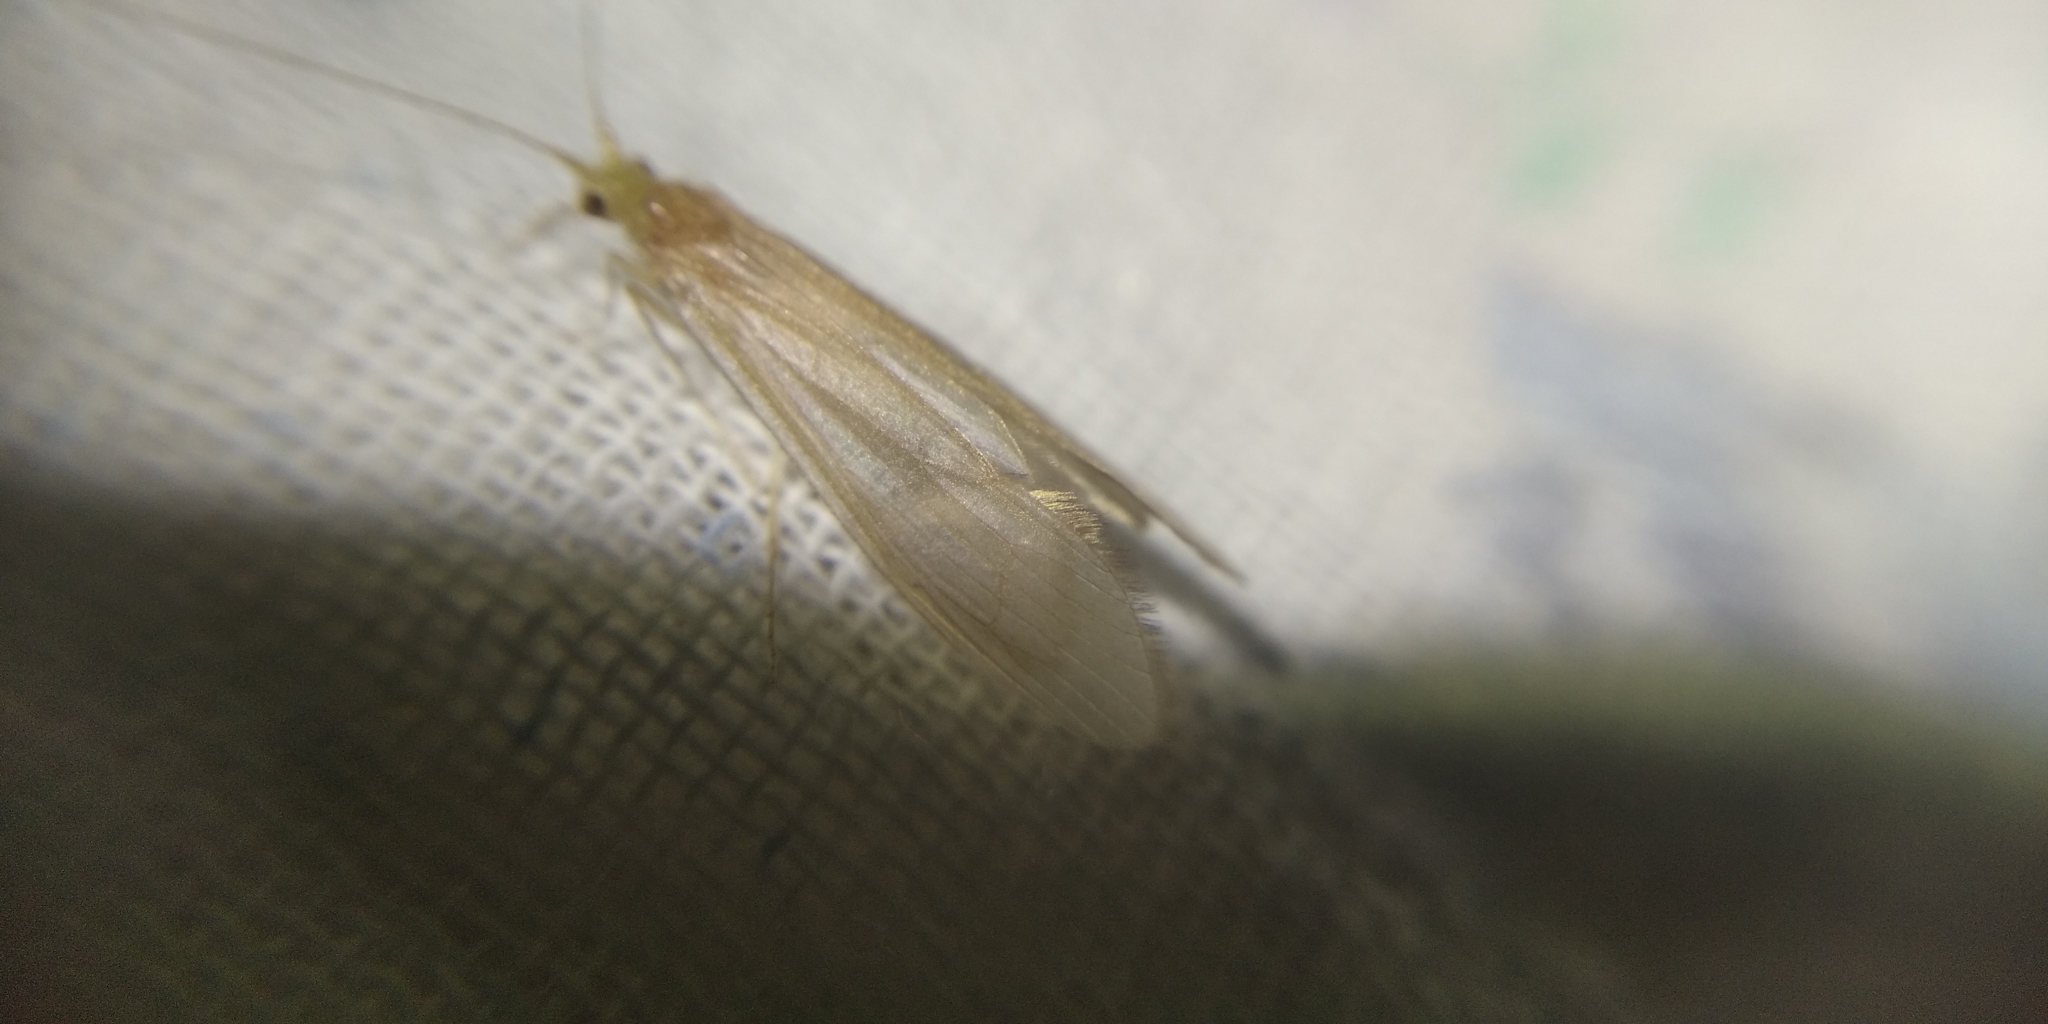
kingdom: Animalia
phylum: Arthropoda
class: Insecta
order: Trichoptera
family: Leptoceridae
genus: Oecetis
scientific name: Oecetis ochracea
